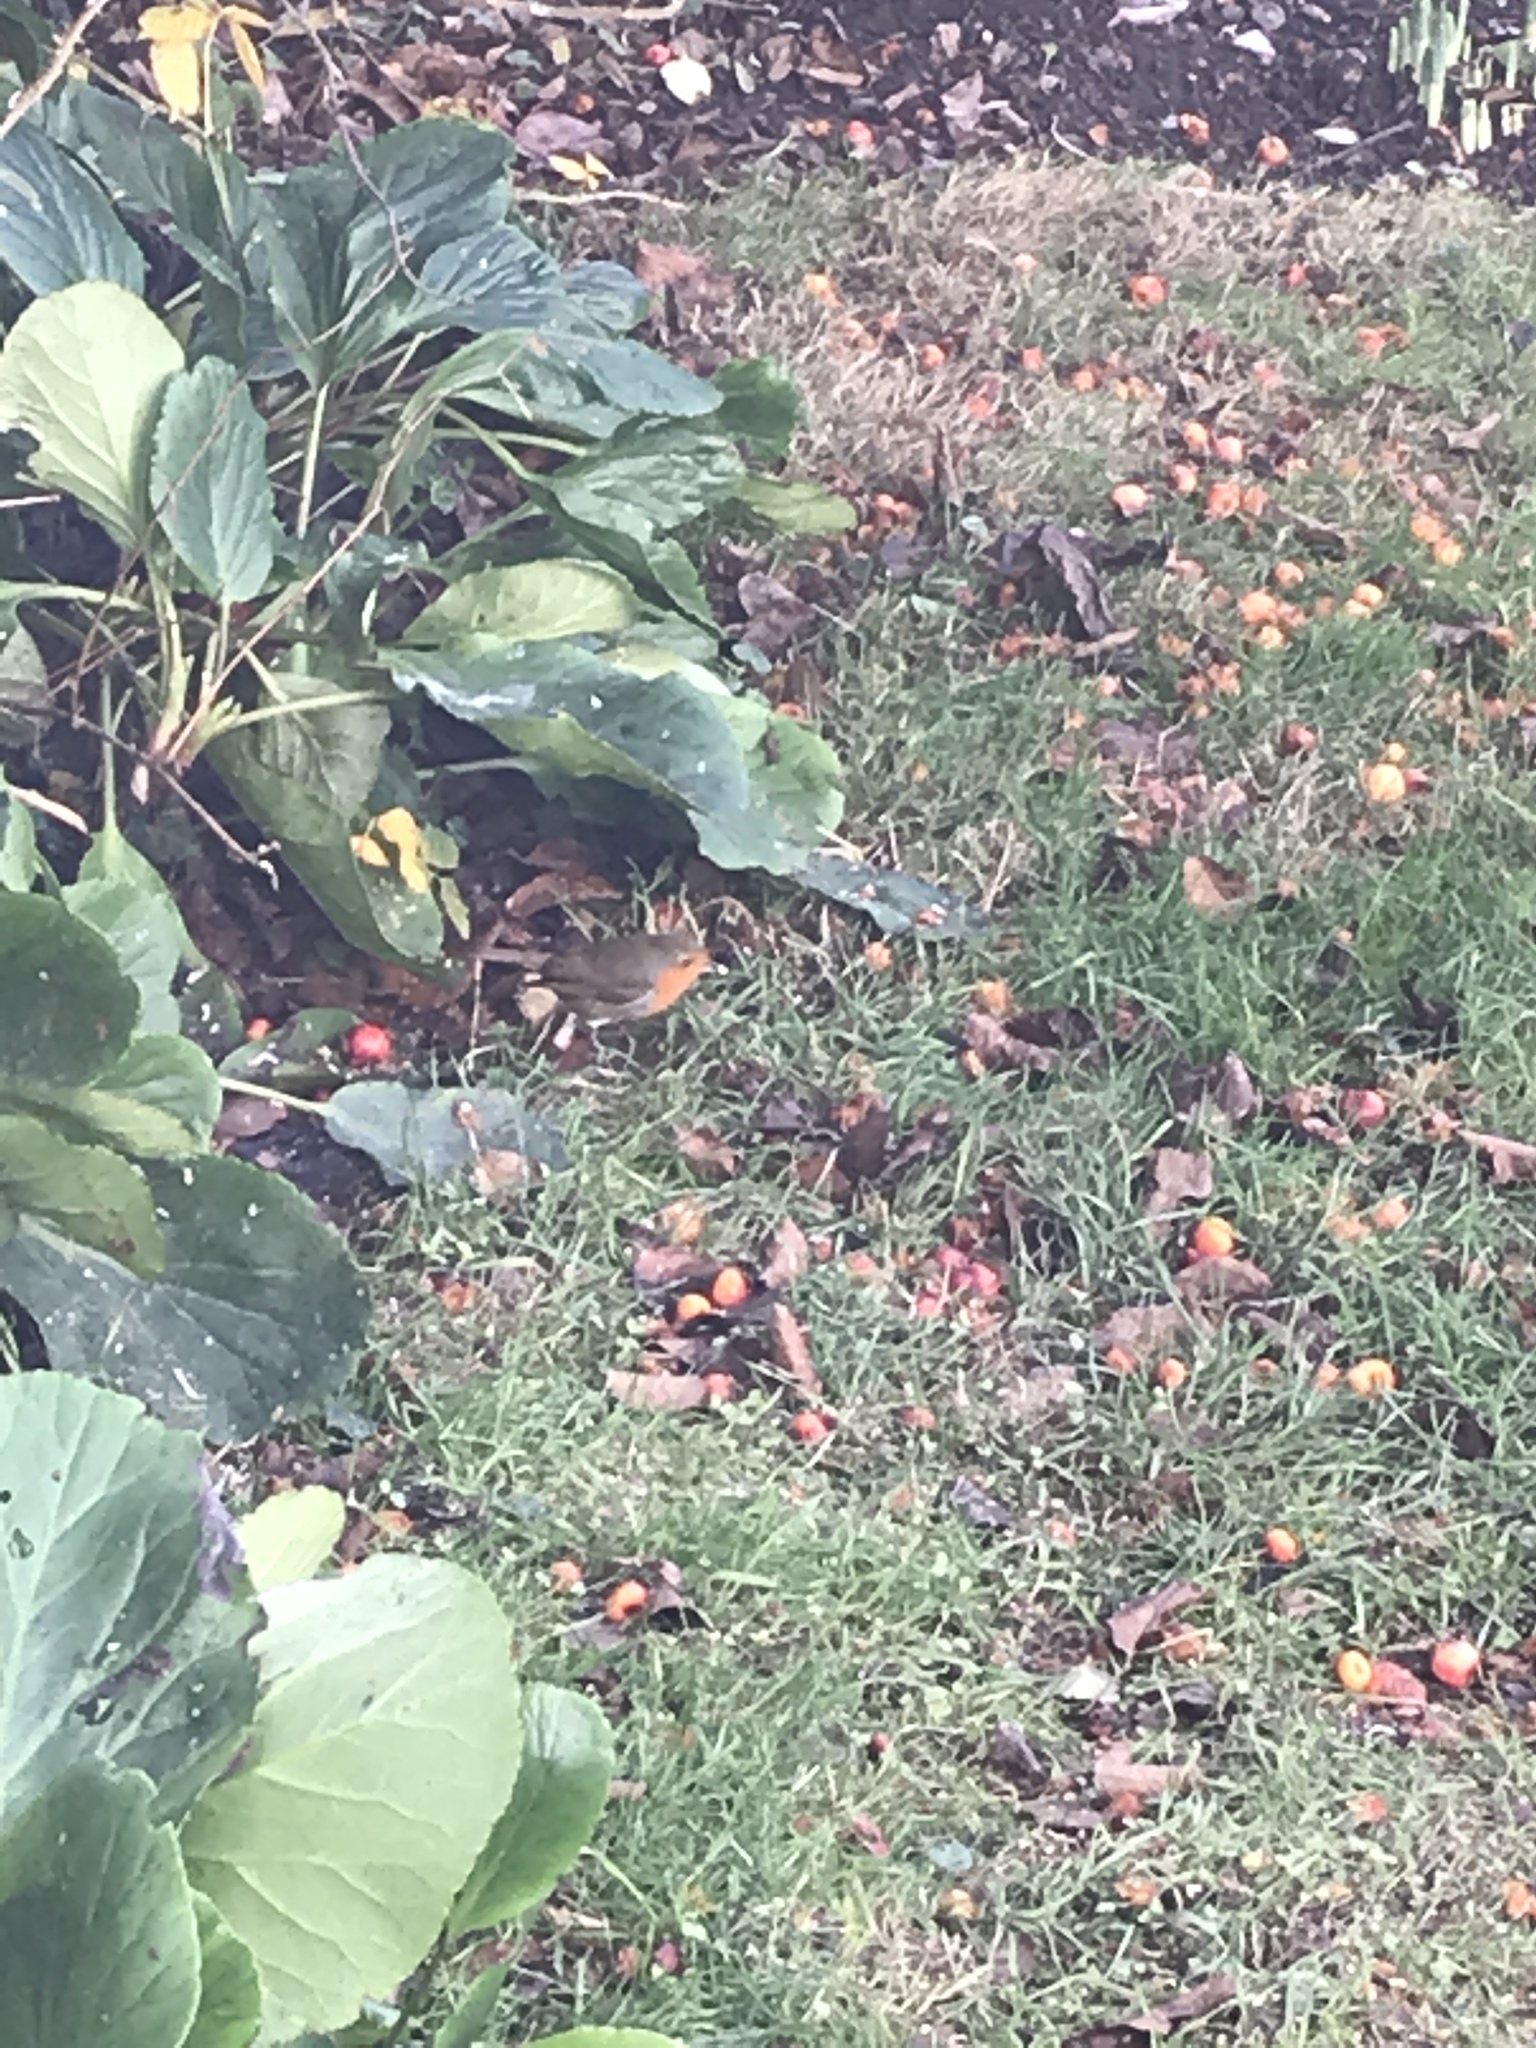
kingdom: Animalia
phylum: Chordata
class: Aves
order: Passeriformes
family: Muscicapidae
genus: Erithacus
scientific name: Erithacus rubecula
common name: European robin
